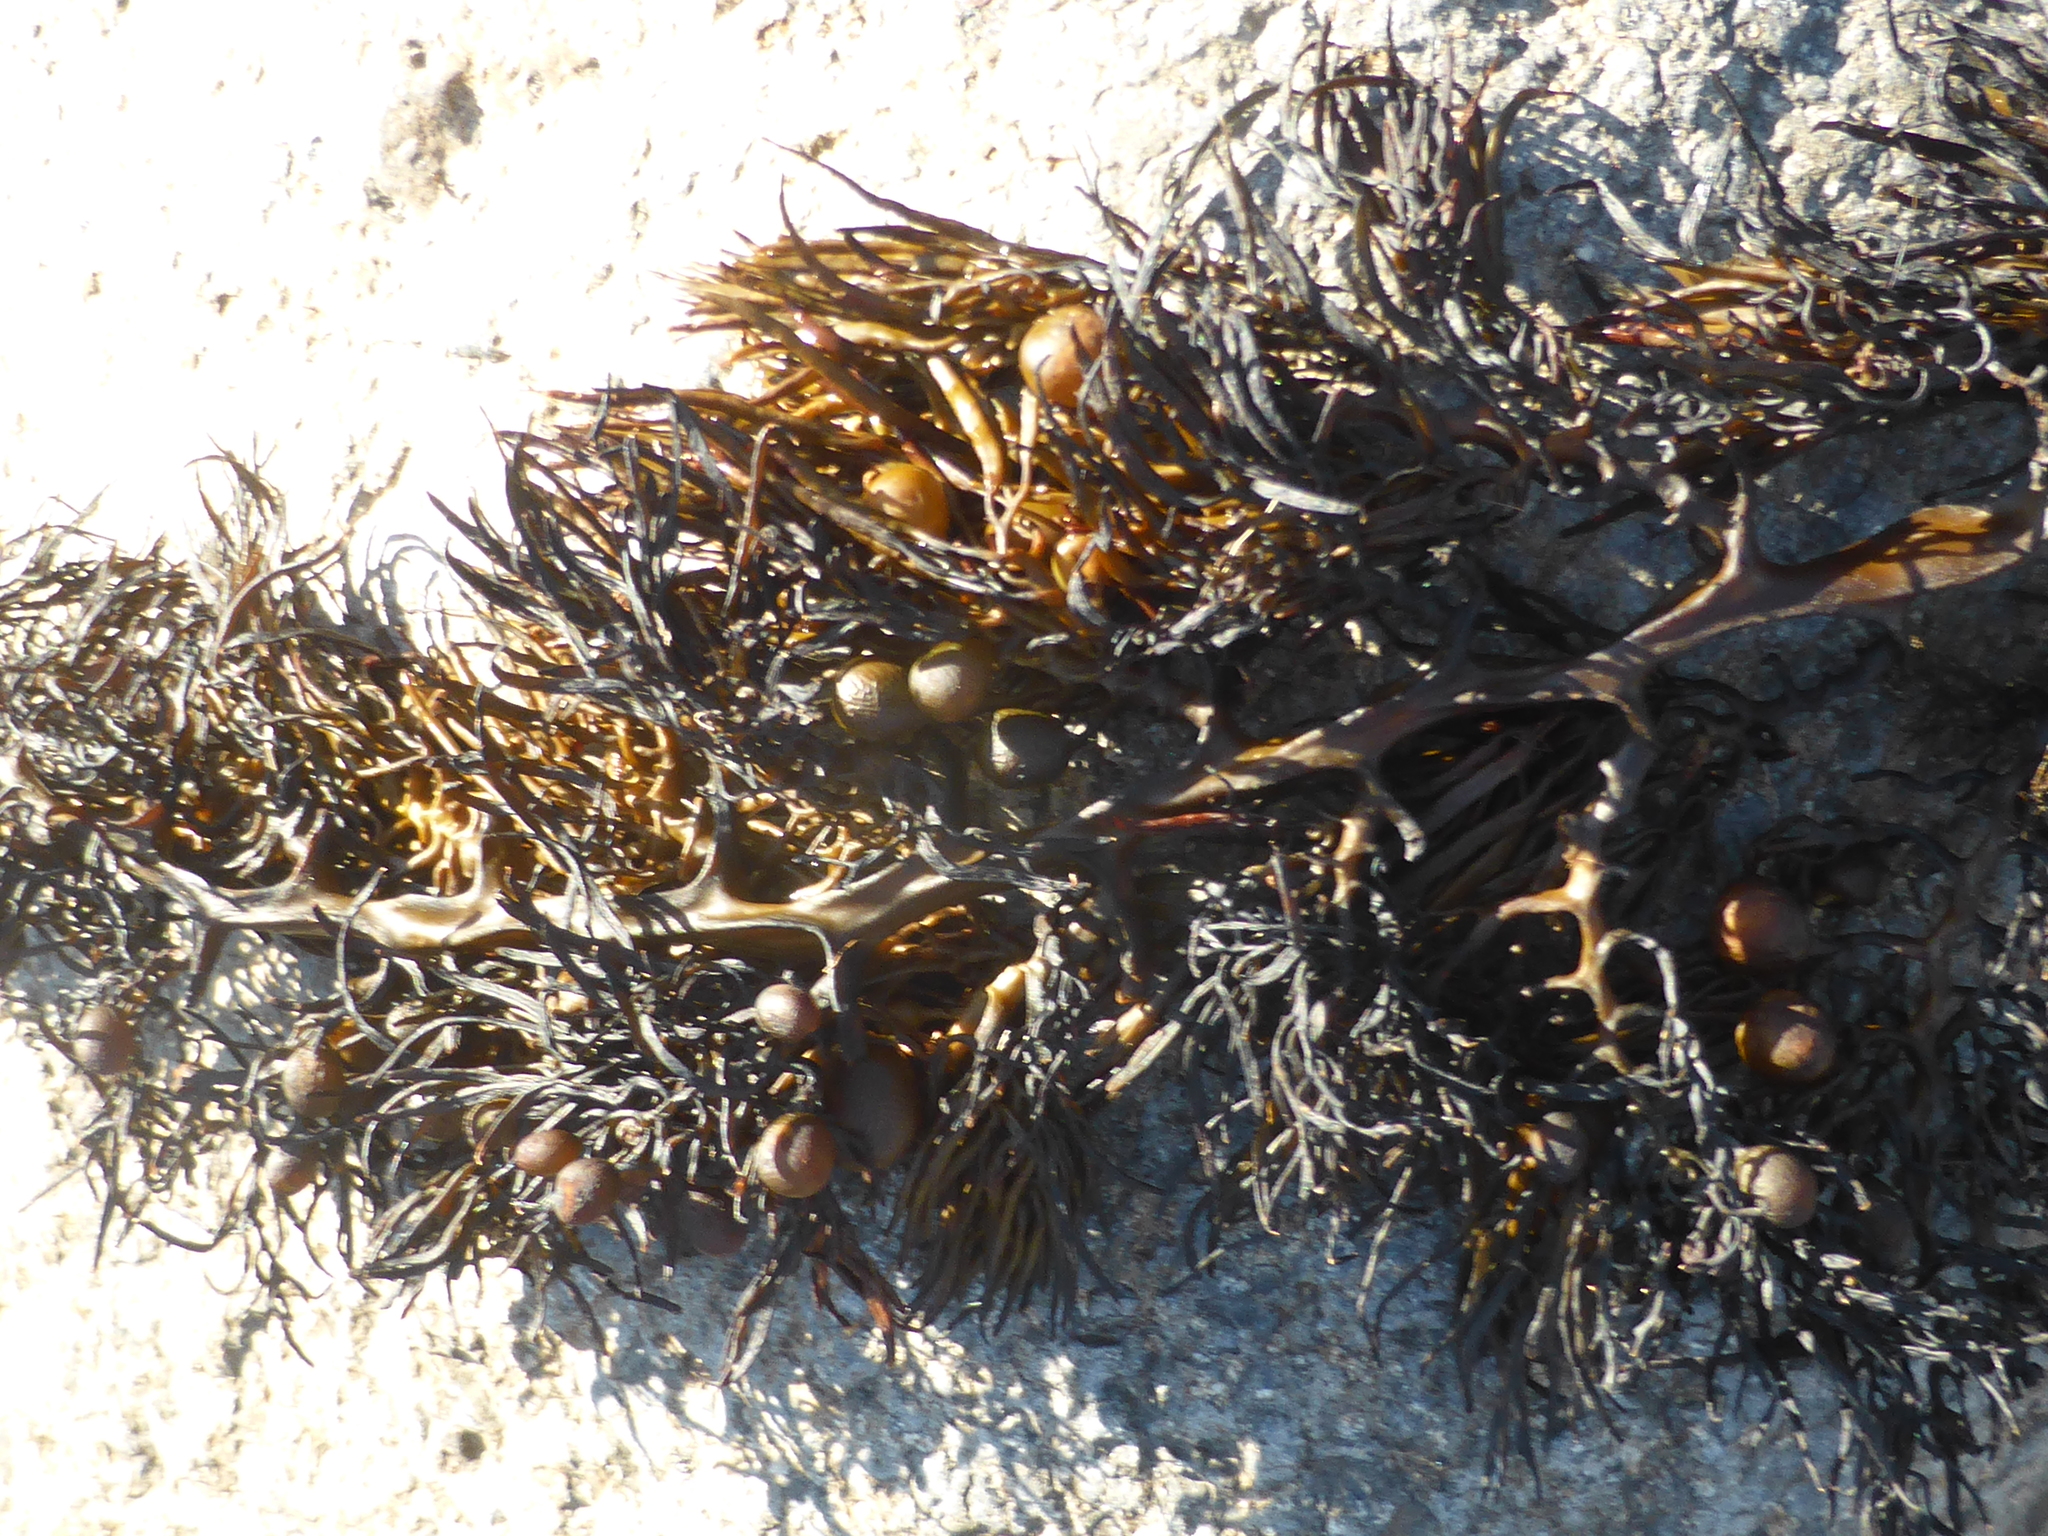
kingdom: Chromista
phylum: Ochrophyta
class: Phaeophyceae
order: Fucales
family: Sargassaceae
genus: Cystophora
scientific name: Cystophora scalaris
